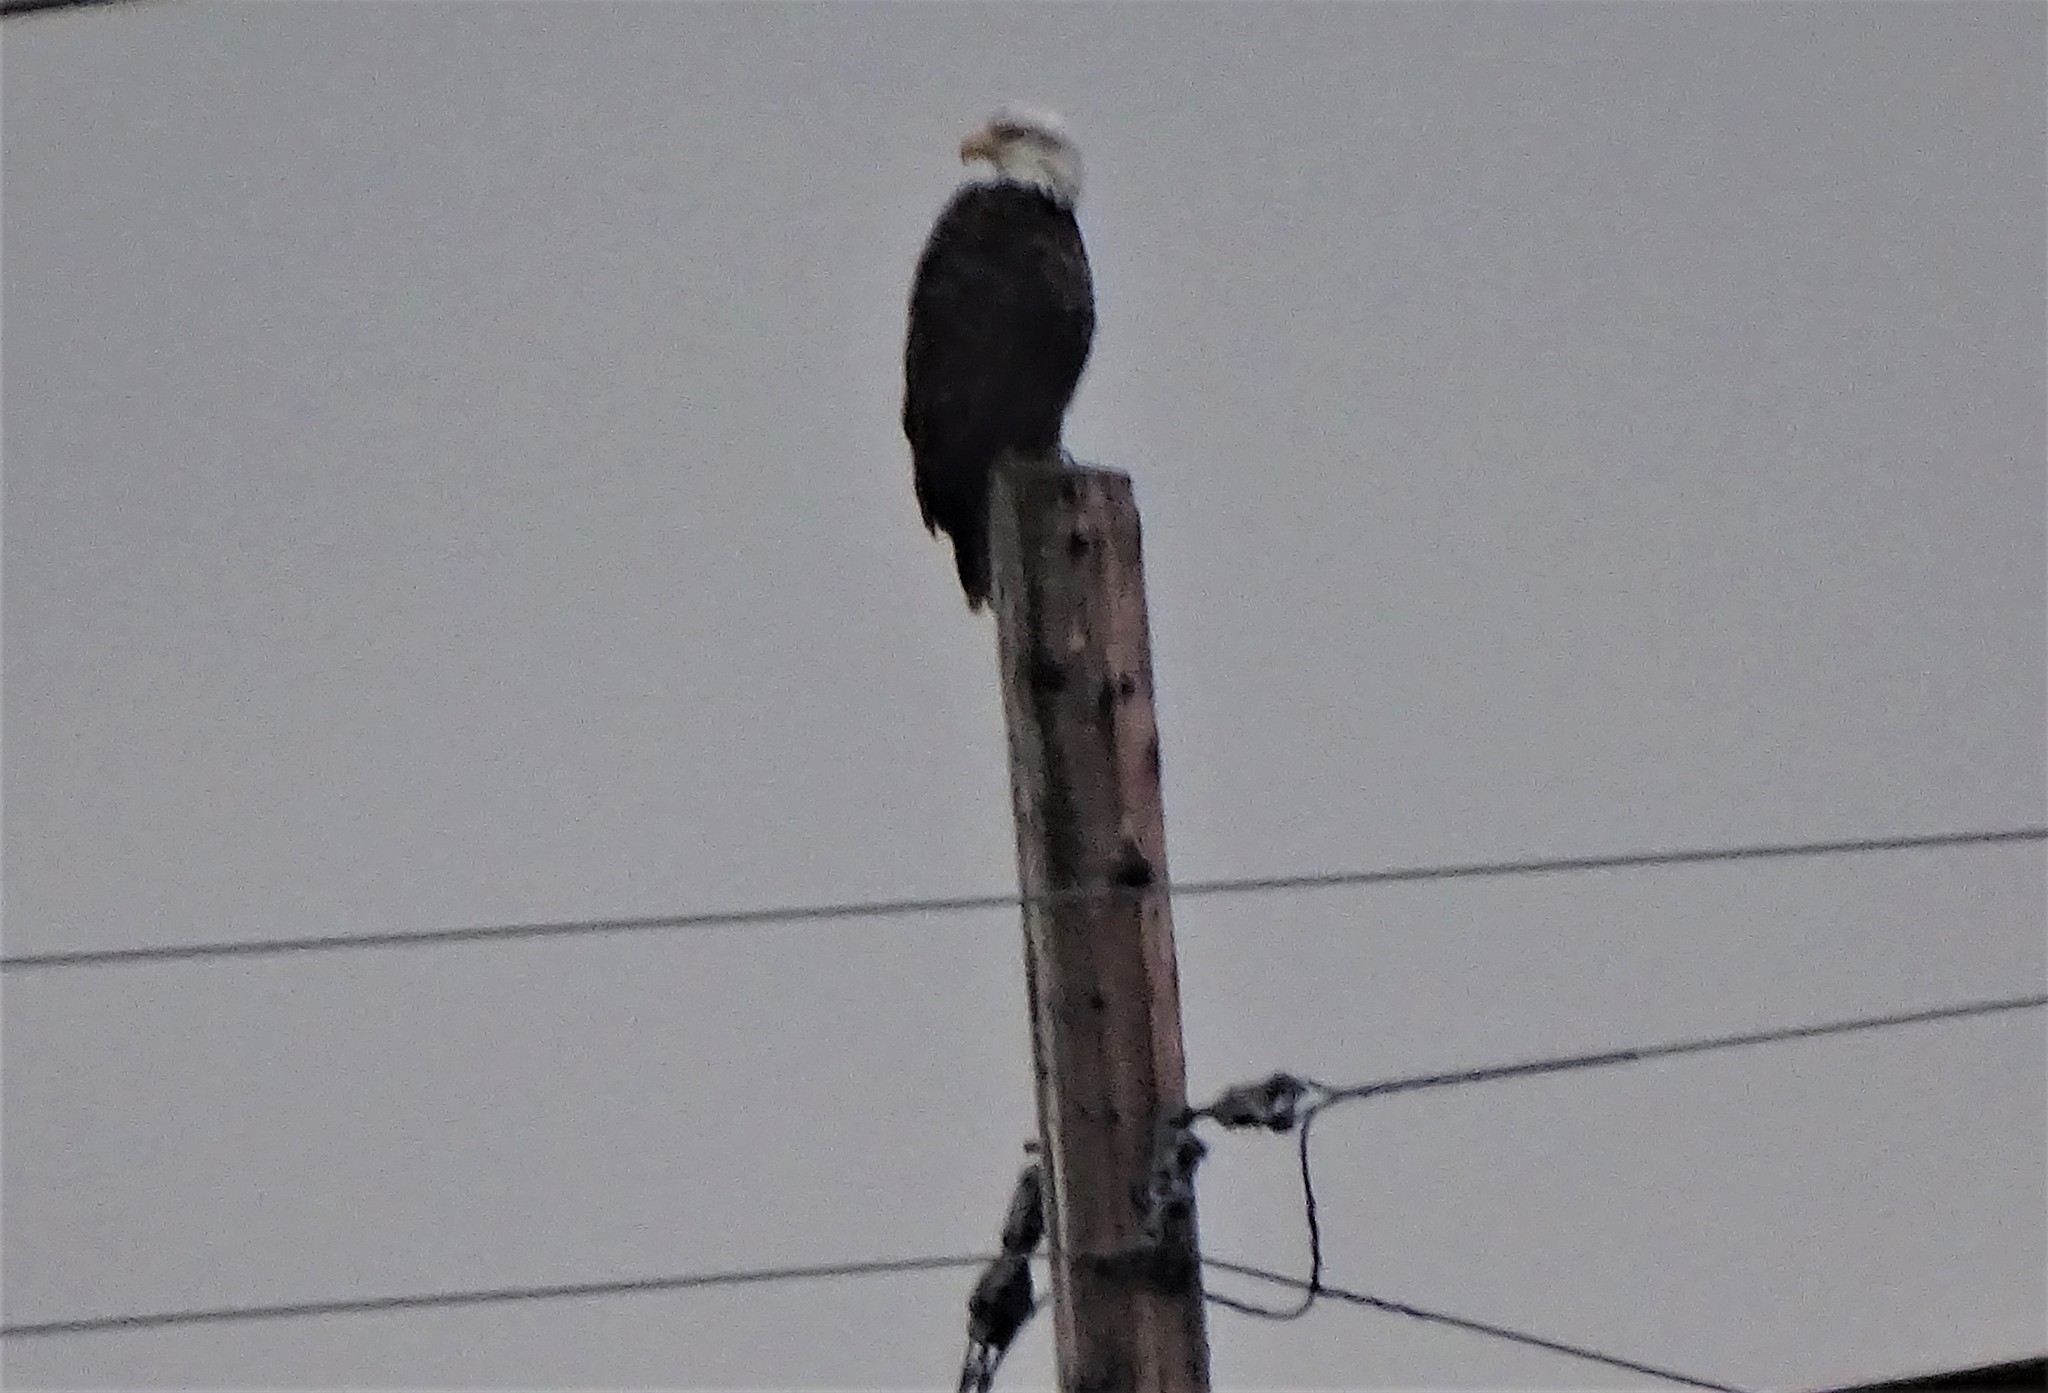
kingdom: Animalia
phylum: Chordata
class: Aves
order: Accipitriformes
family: Accipitridae
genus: Haliaeetus
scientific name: Haliaeetus leucocephalus
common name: Bald eagle
